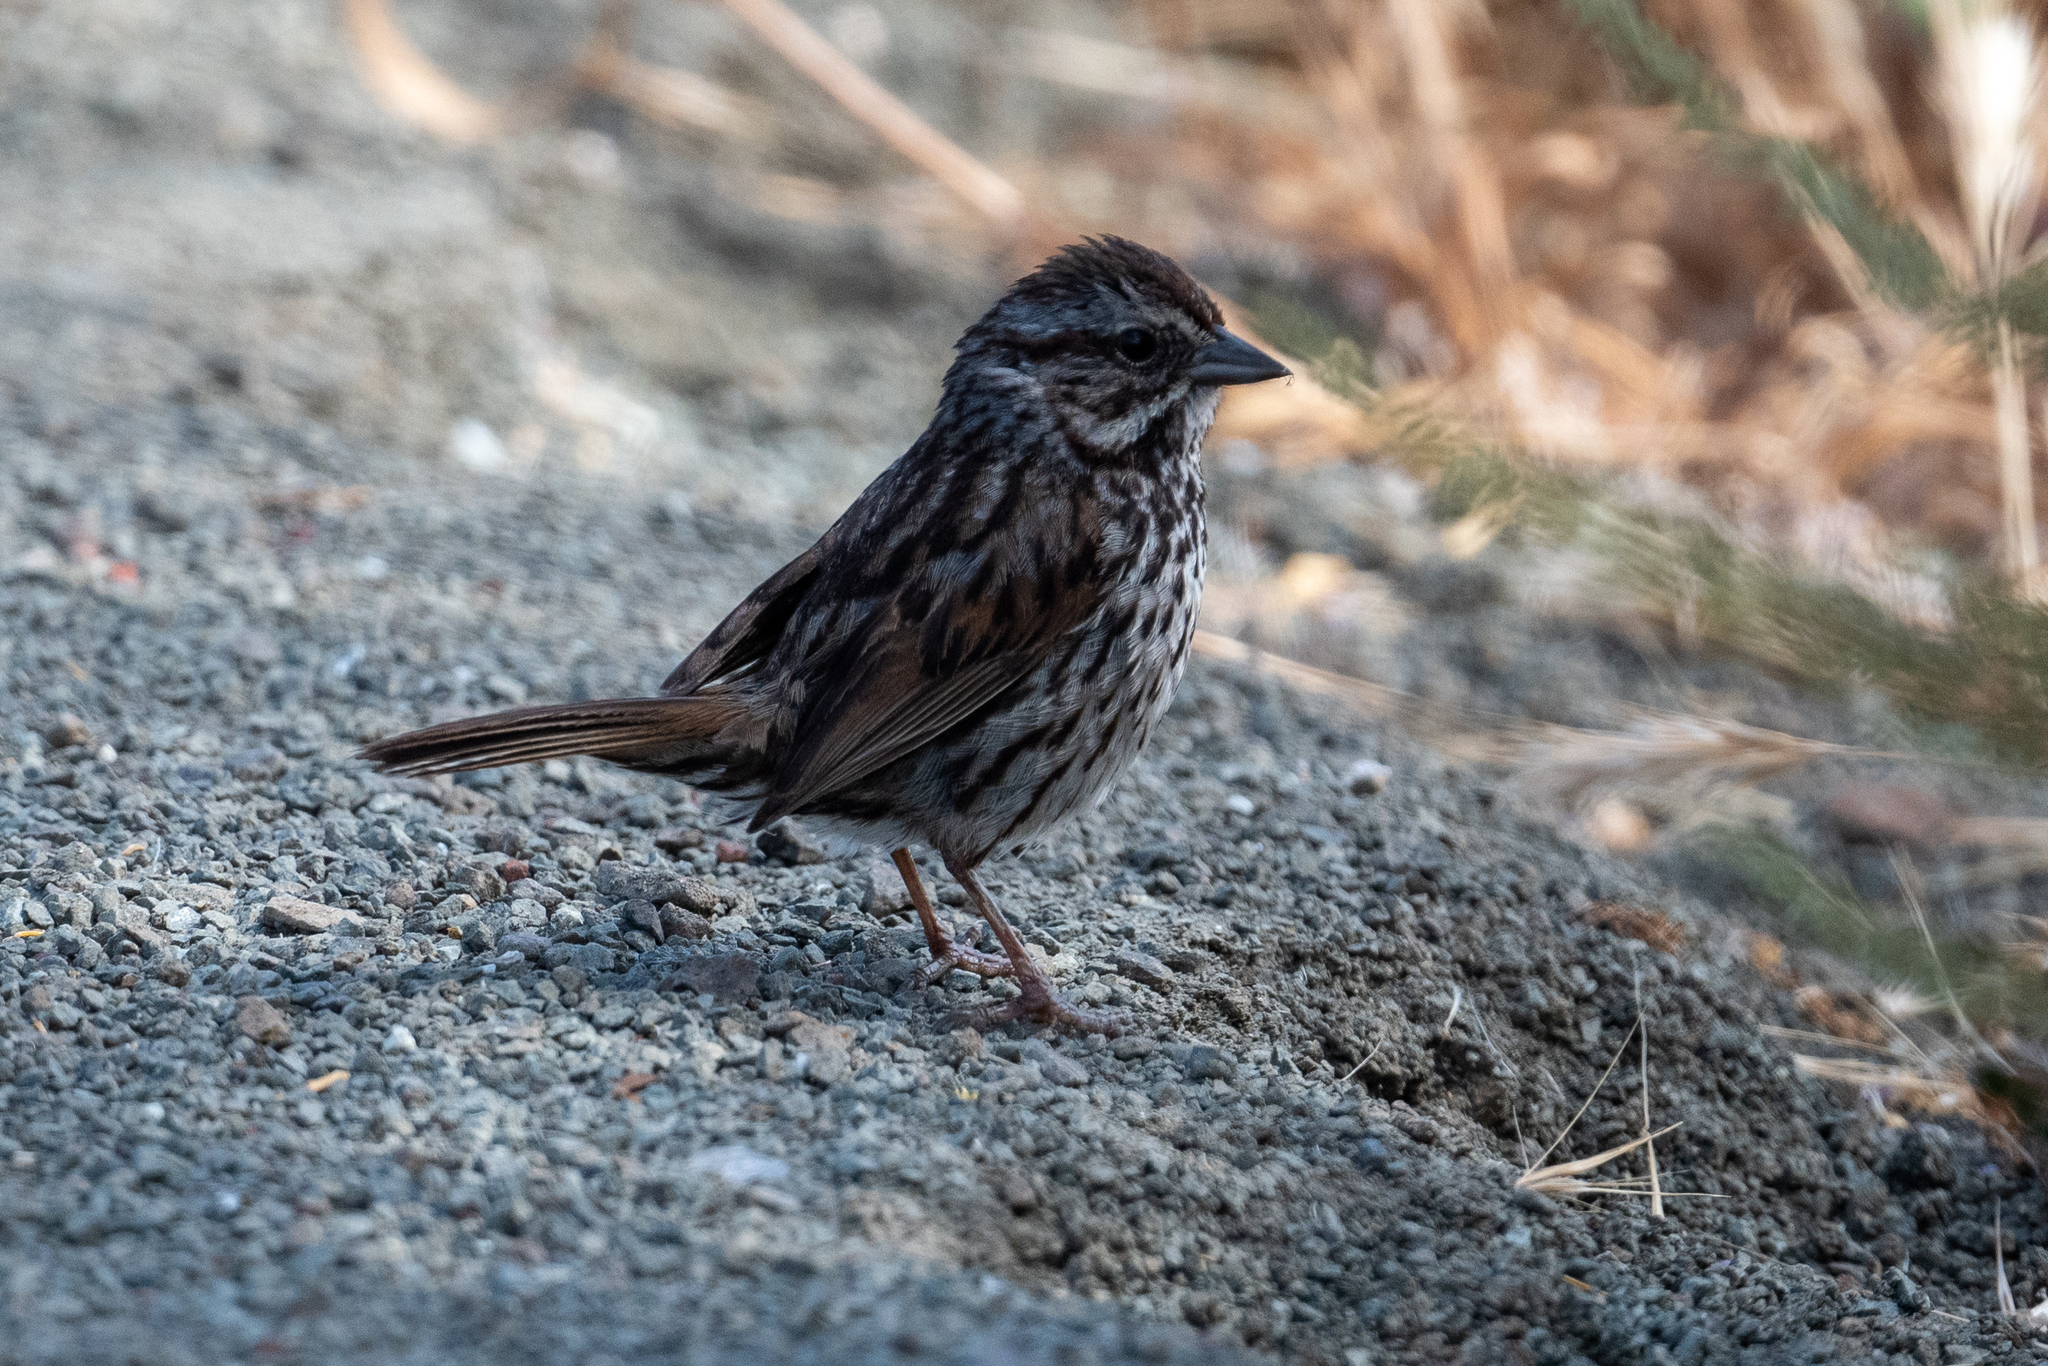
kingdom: Animalia
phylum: Chordata
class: Aves
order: Passeriformes
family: Passerellidae
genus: Melospiza
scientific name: Melospiza melodia
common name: Song sparrow
